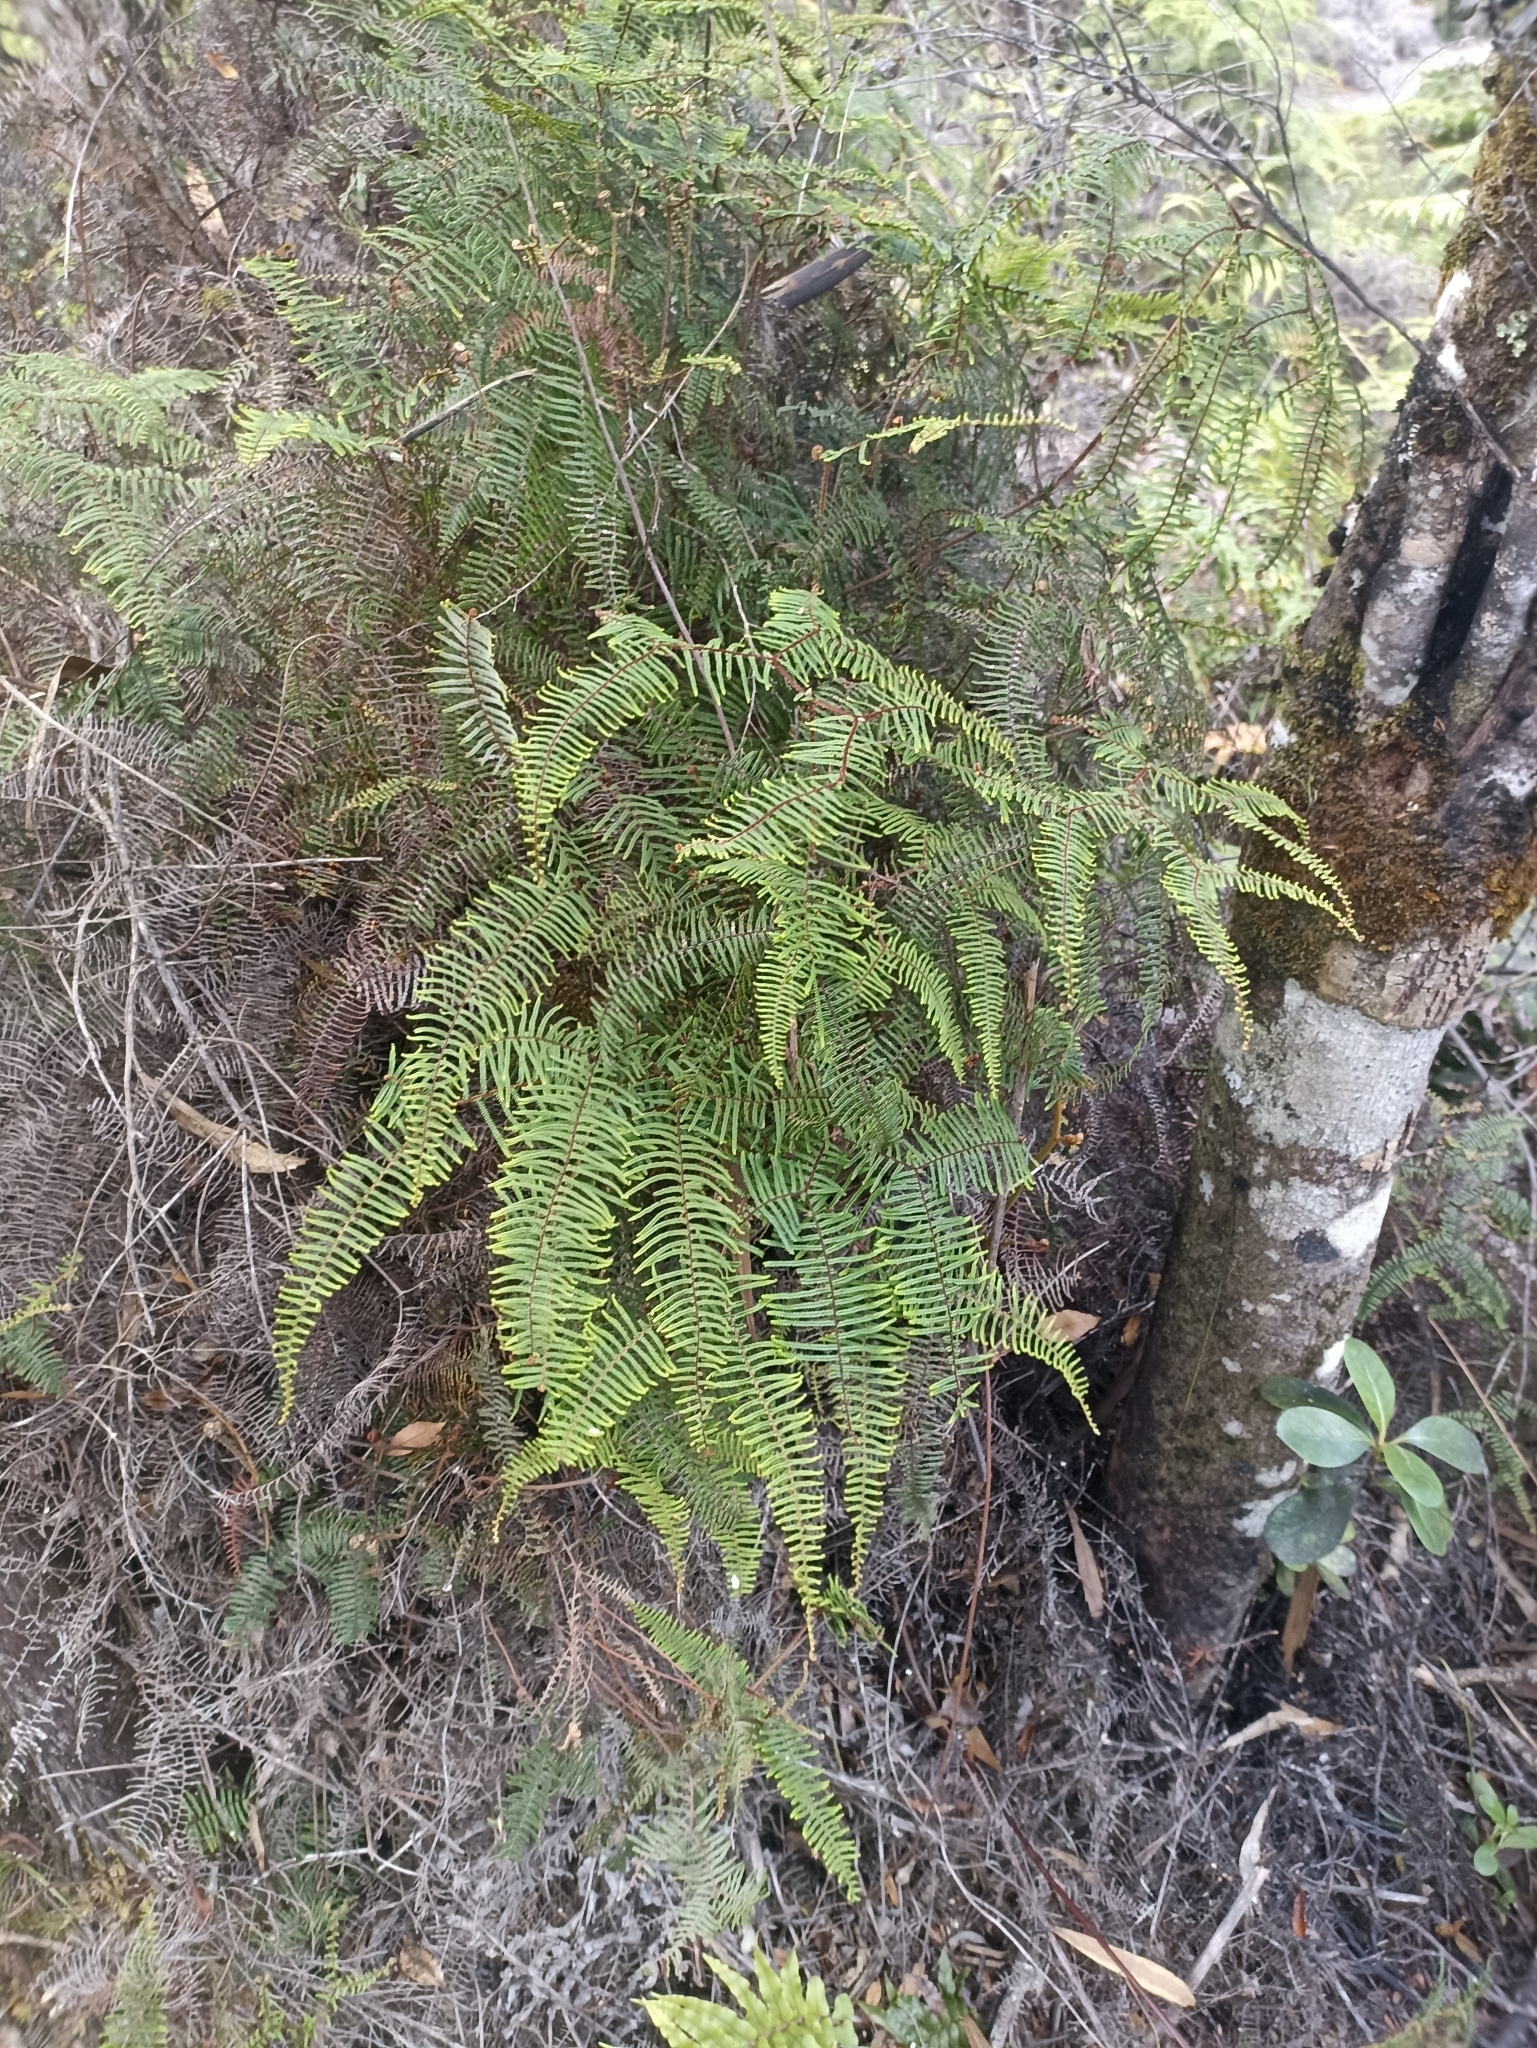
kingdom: Plantae
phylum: Tracheophyta
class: Polypodiopsida
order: Gleicheniales
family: Gleicheniaceae
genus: Gleichenia
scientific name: Gleichenia dicarpa
